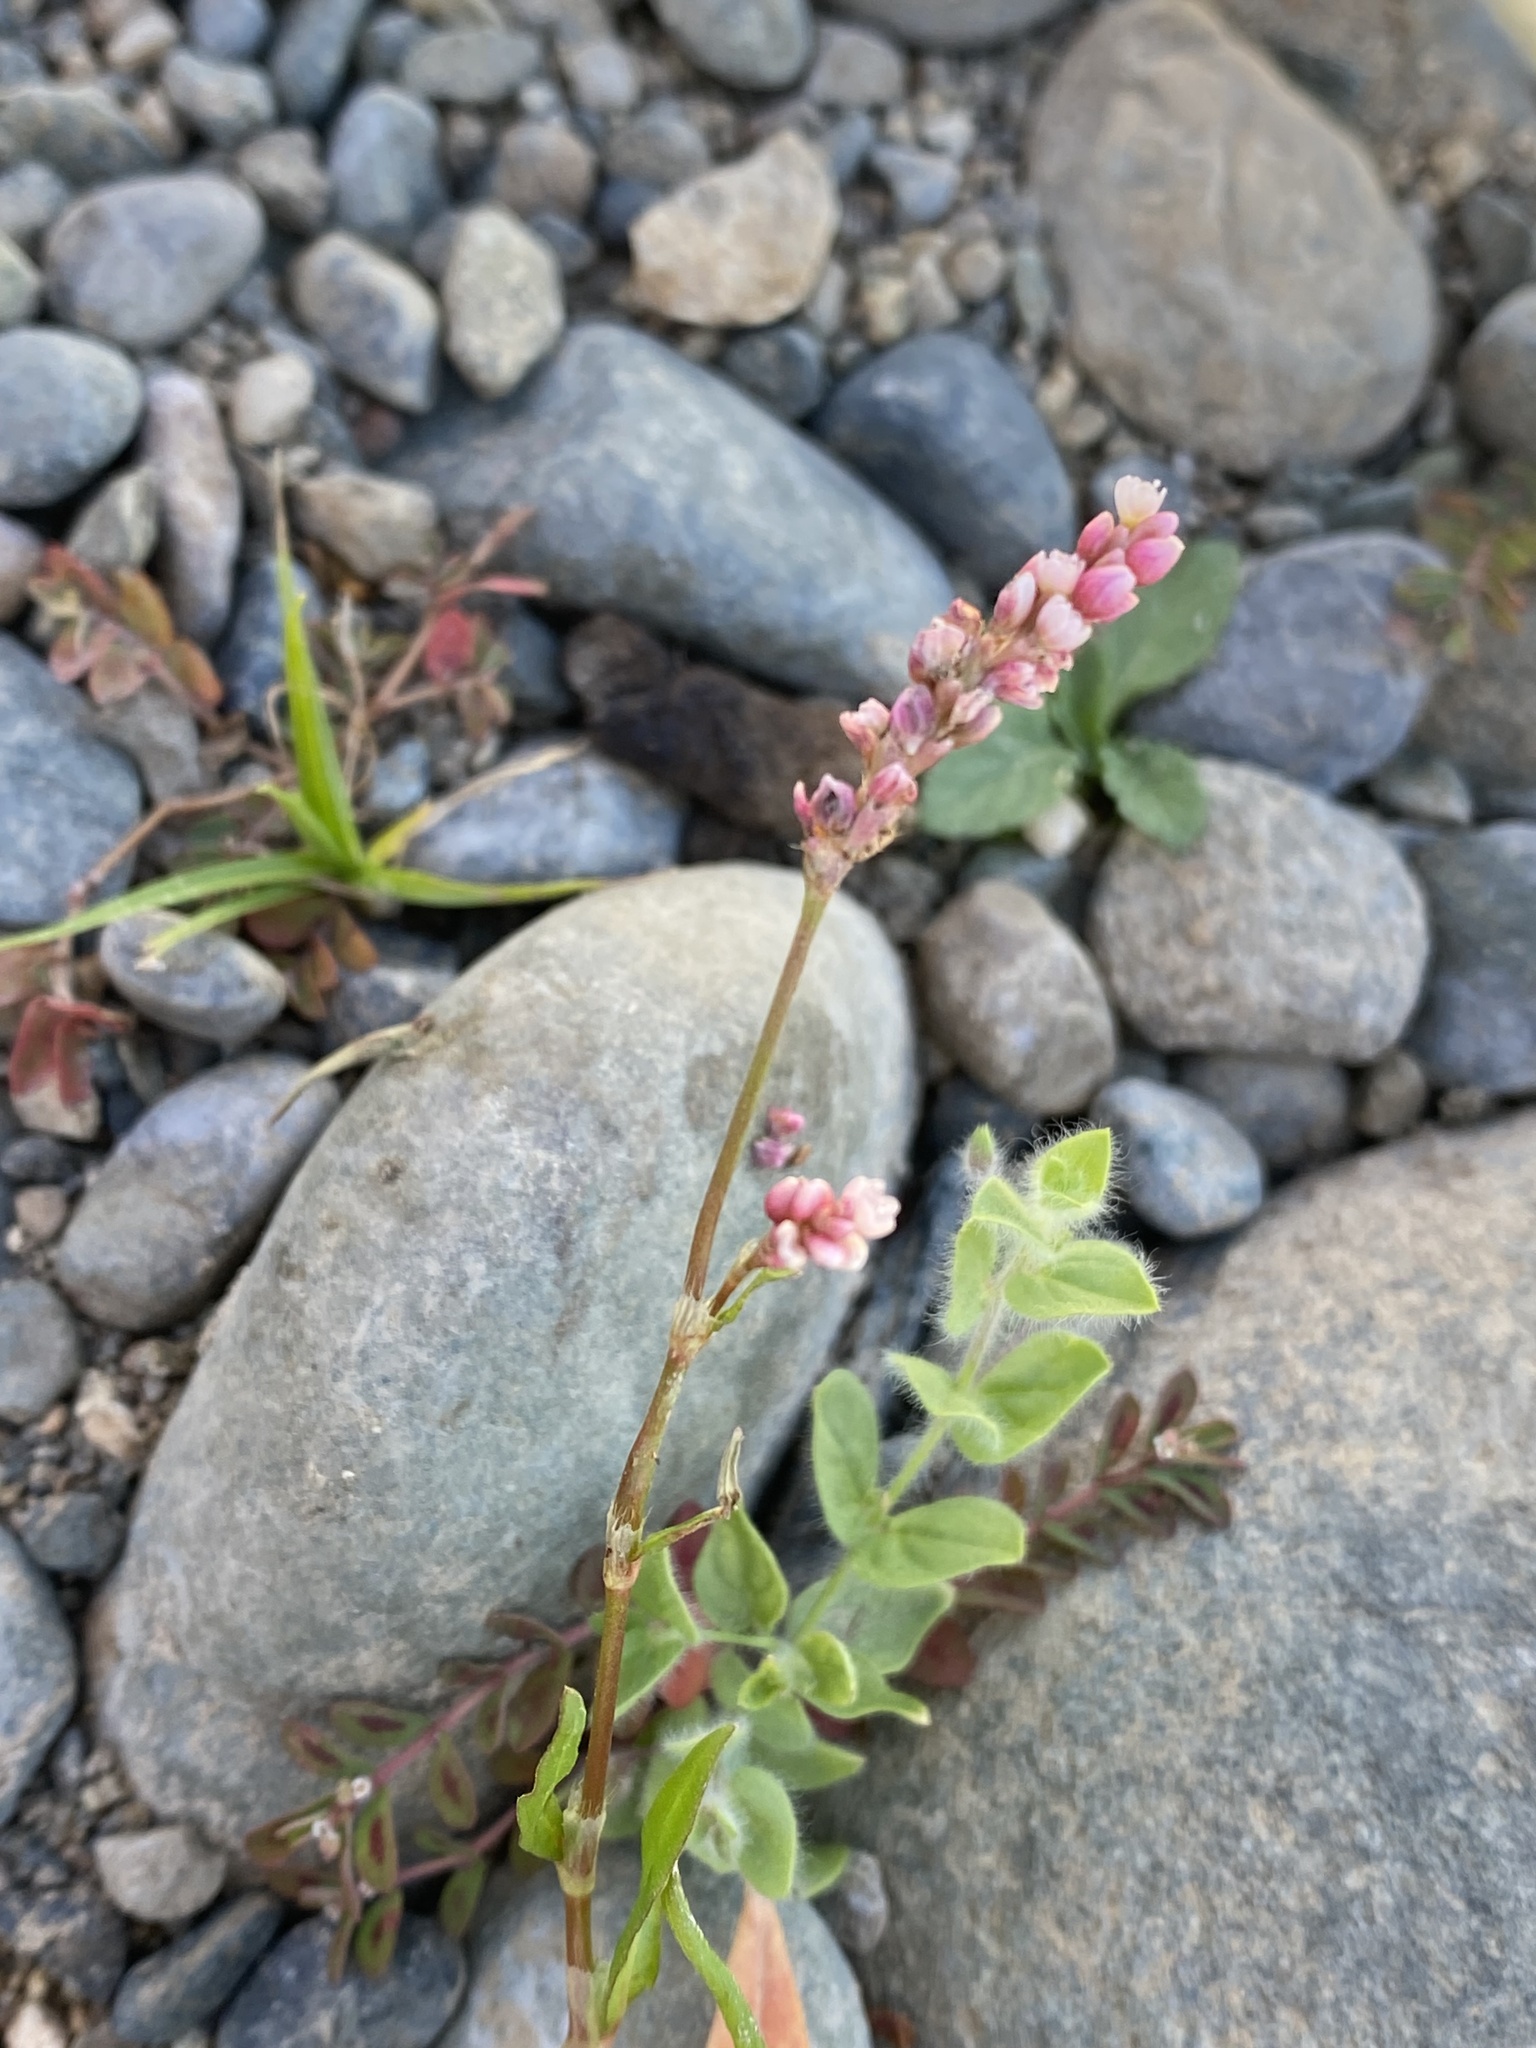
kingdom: Plantae
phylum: Tracheophyta
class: Magnoliopsida
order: Caryophyllales
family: Polygonaceae
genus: Persicaria
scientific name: Persicaria maculosa
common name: Redshank
